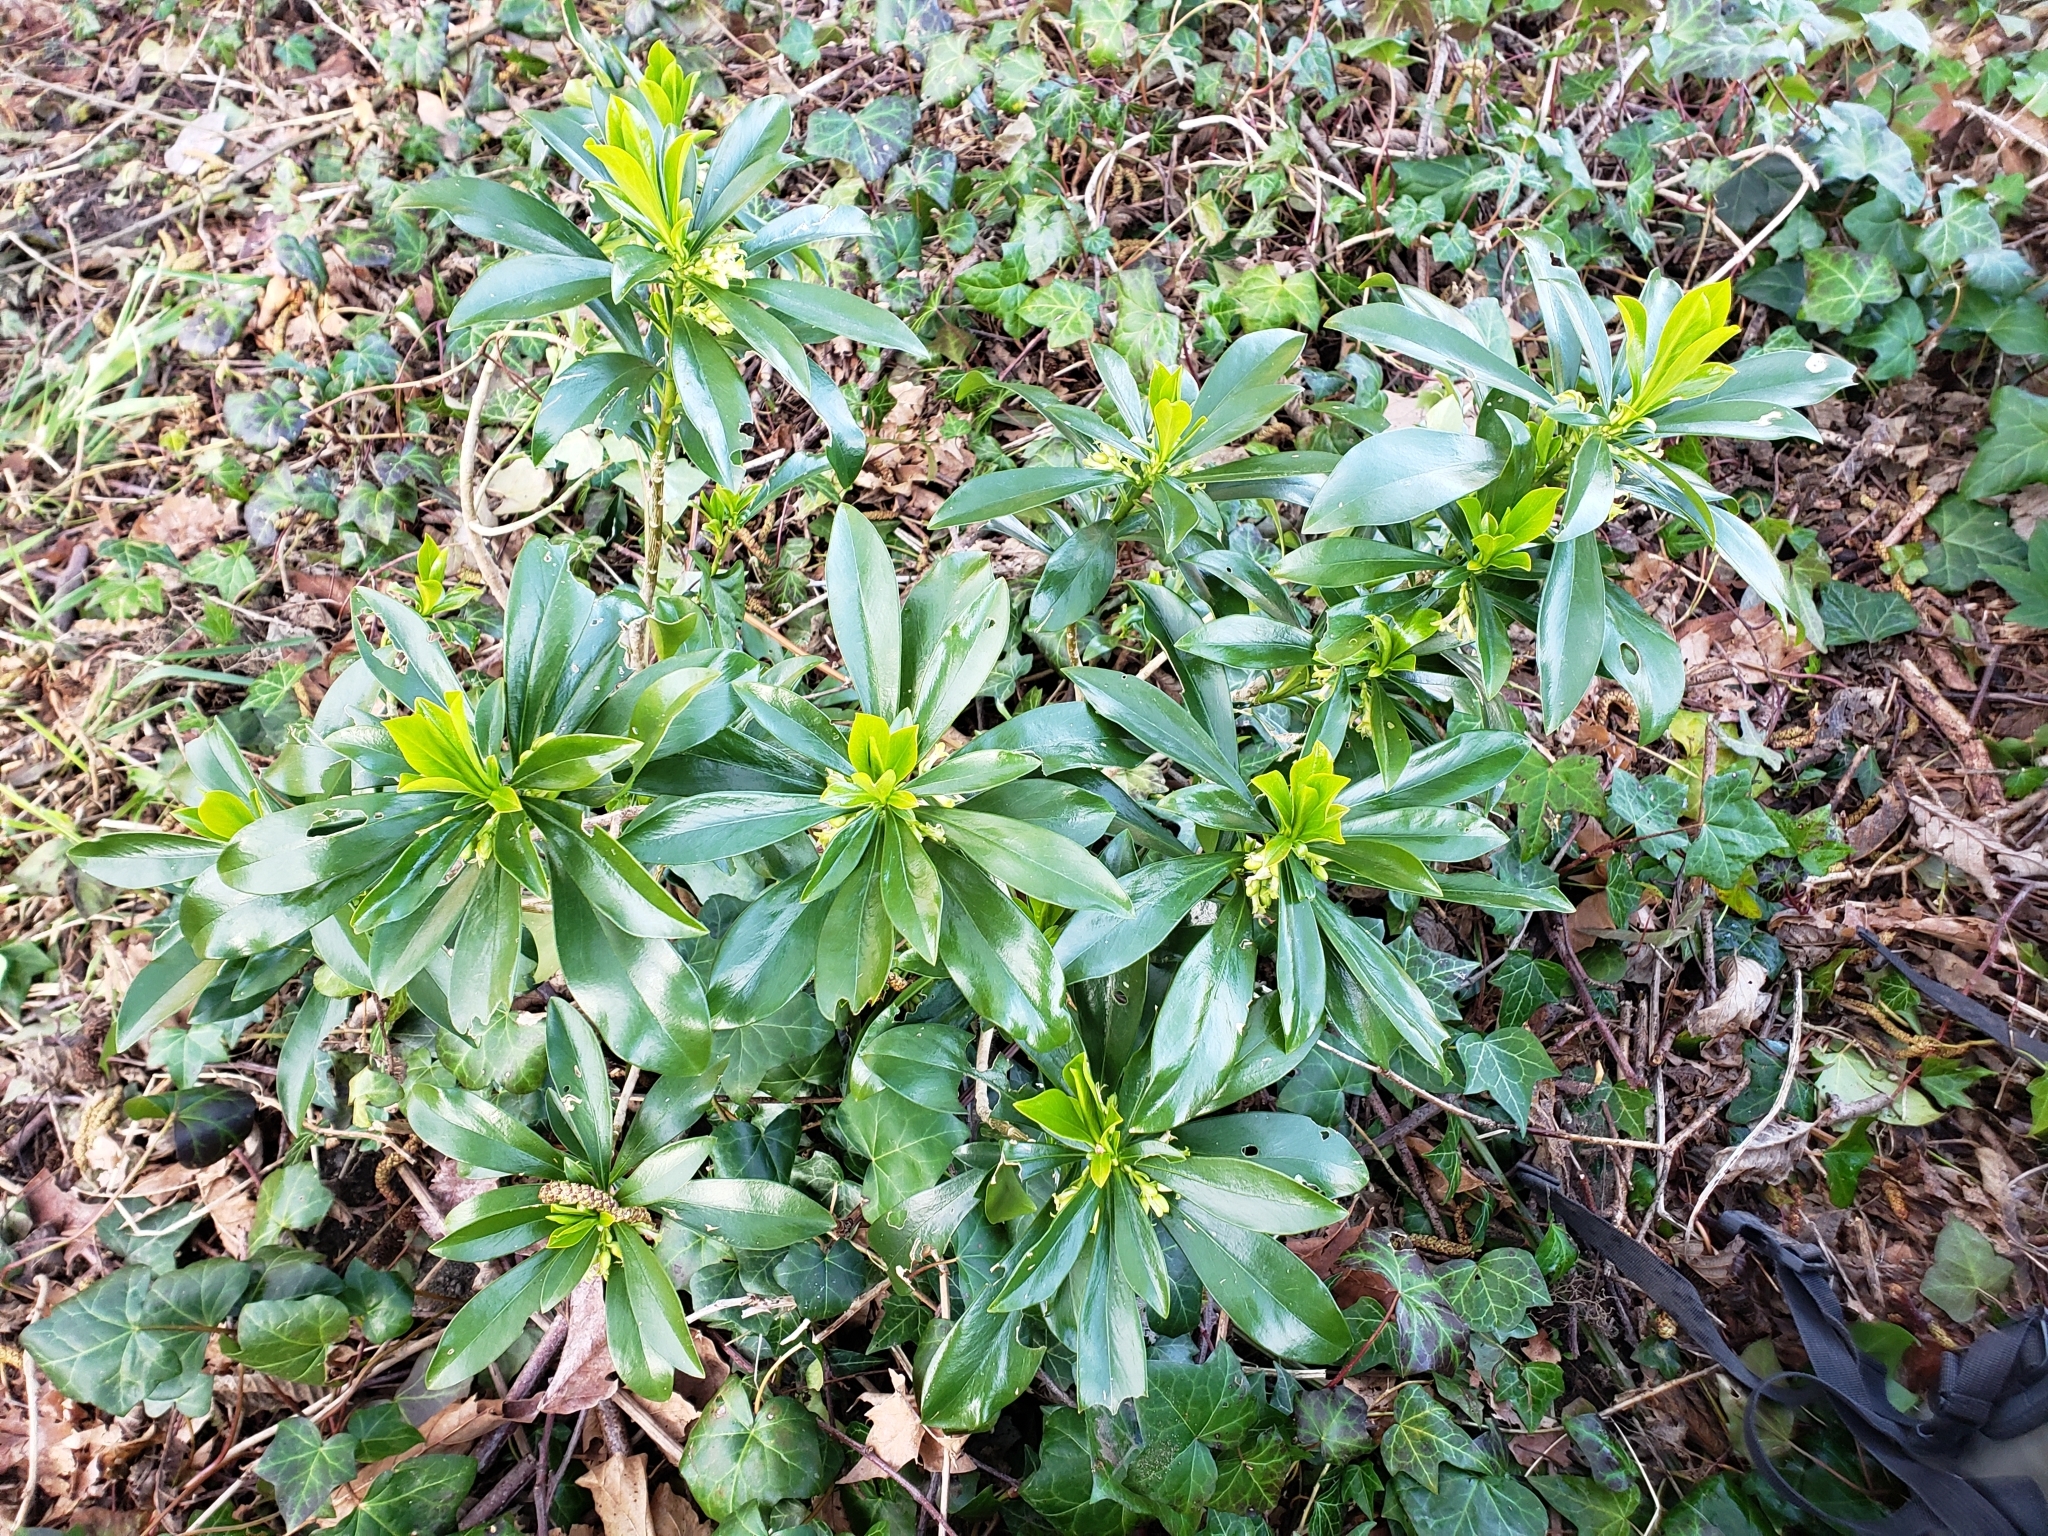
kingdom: Plantae
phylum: Tracheophyta
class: Magnoliopsida
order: Malvales
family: Thymelaeaceae
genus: Daphne
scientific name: Daphne laureola
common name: Spurge-laurel
